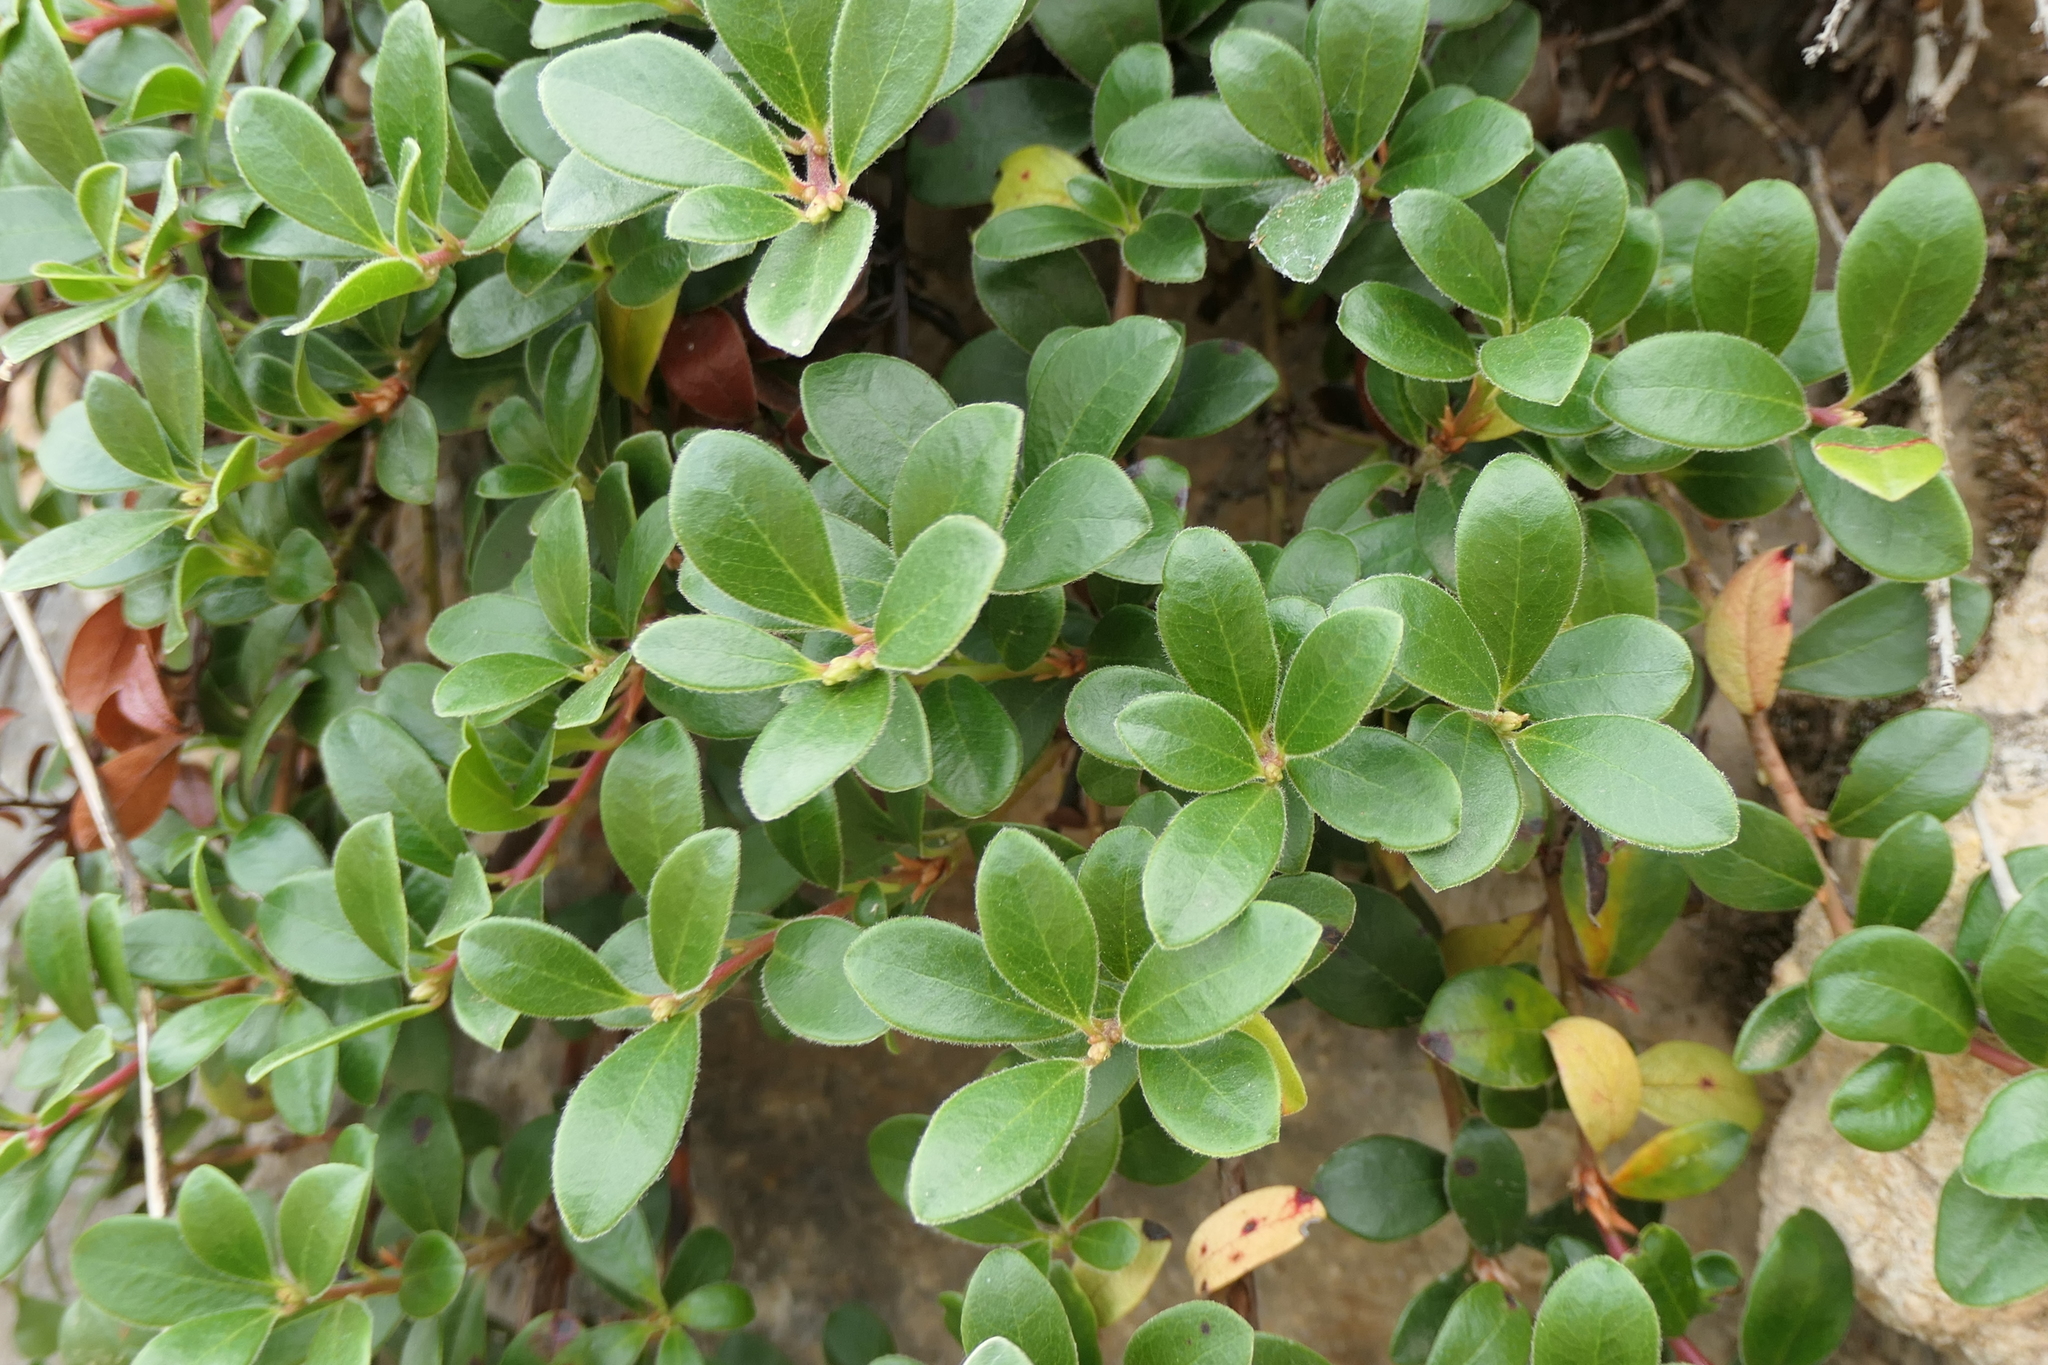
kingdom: Plantae
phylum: Tracheophyta
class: Magnoliopsida
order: Ericales
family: Ericaceae
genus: Arctostaphylos
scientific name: Arctostaphylos uva-ursi
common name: Bearberry
